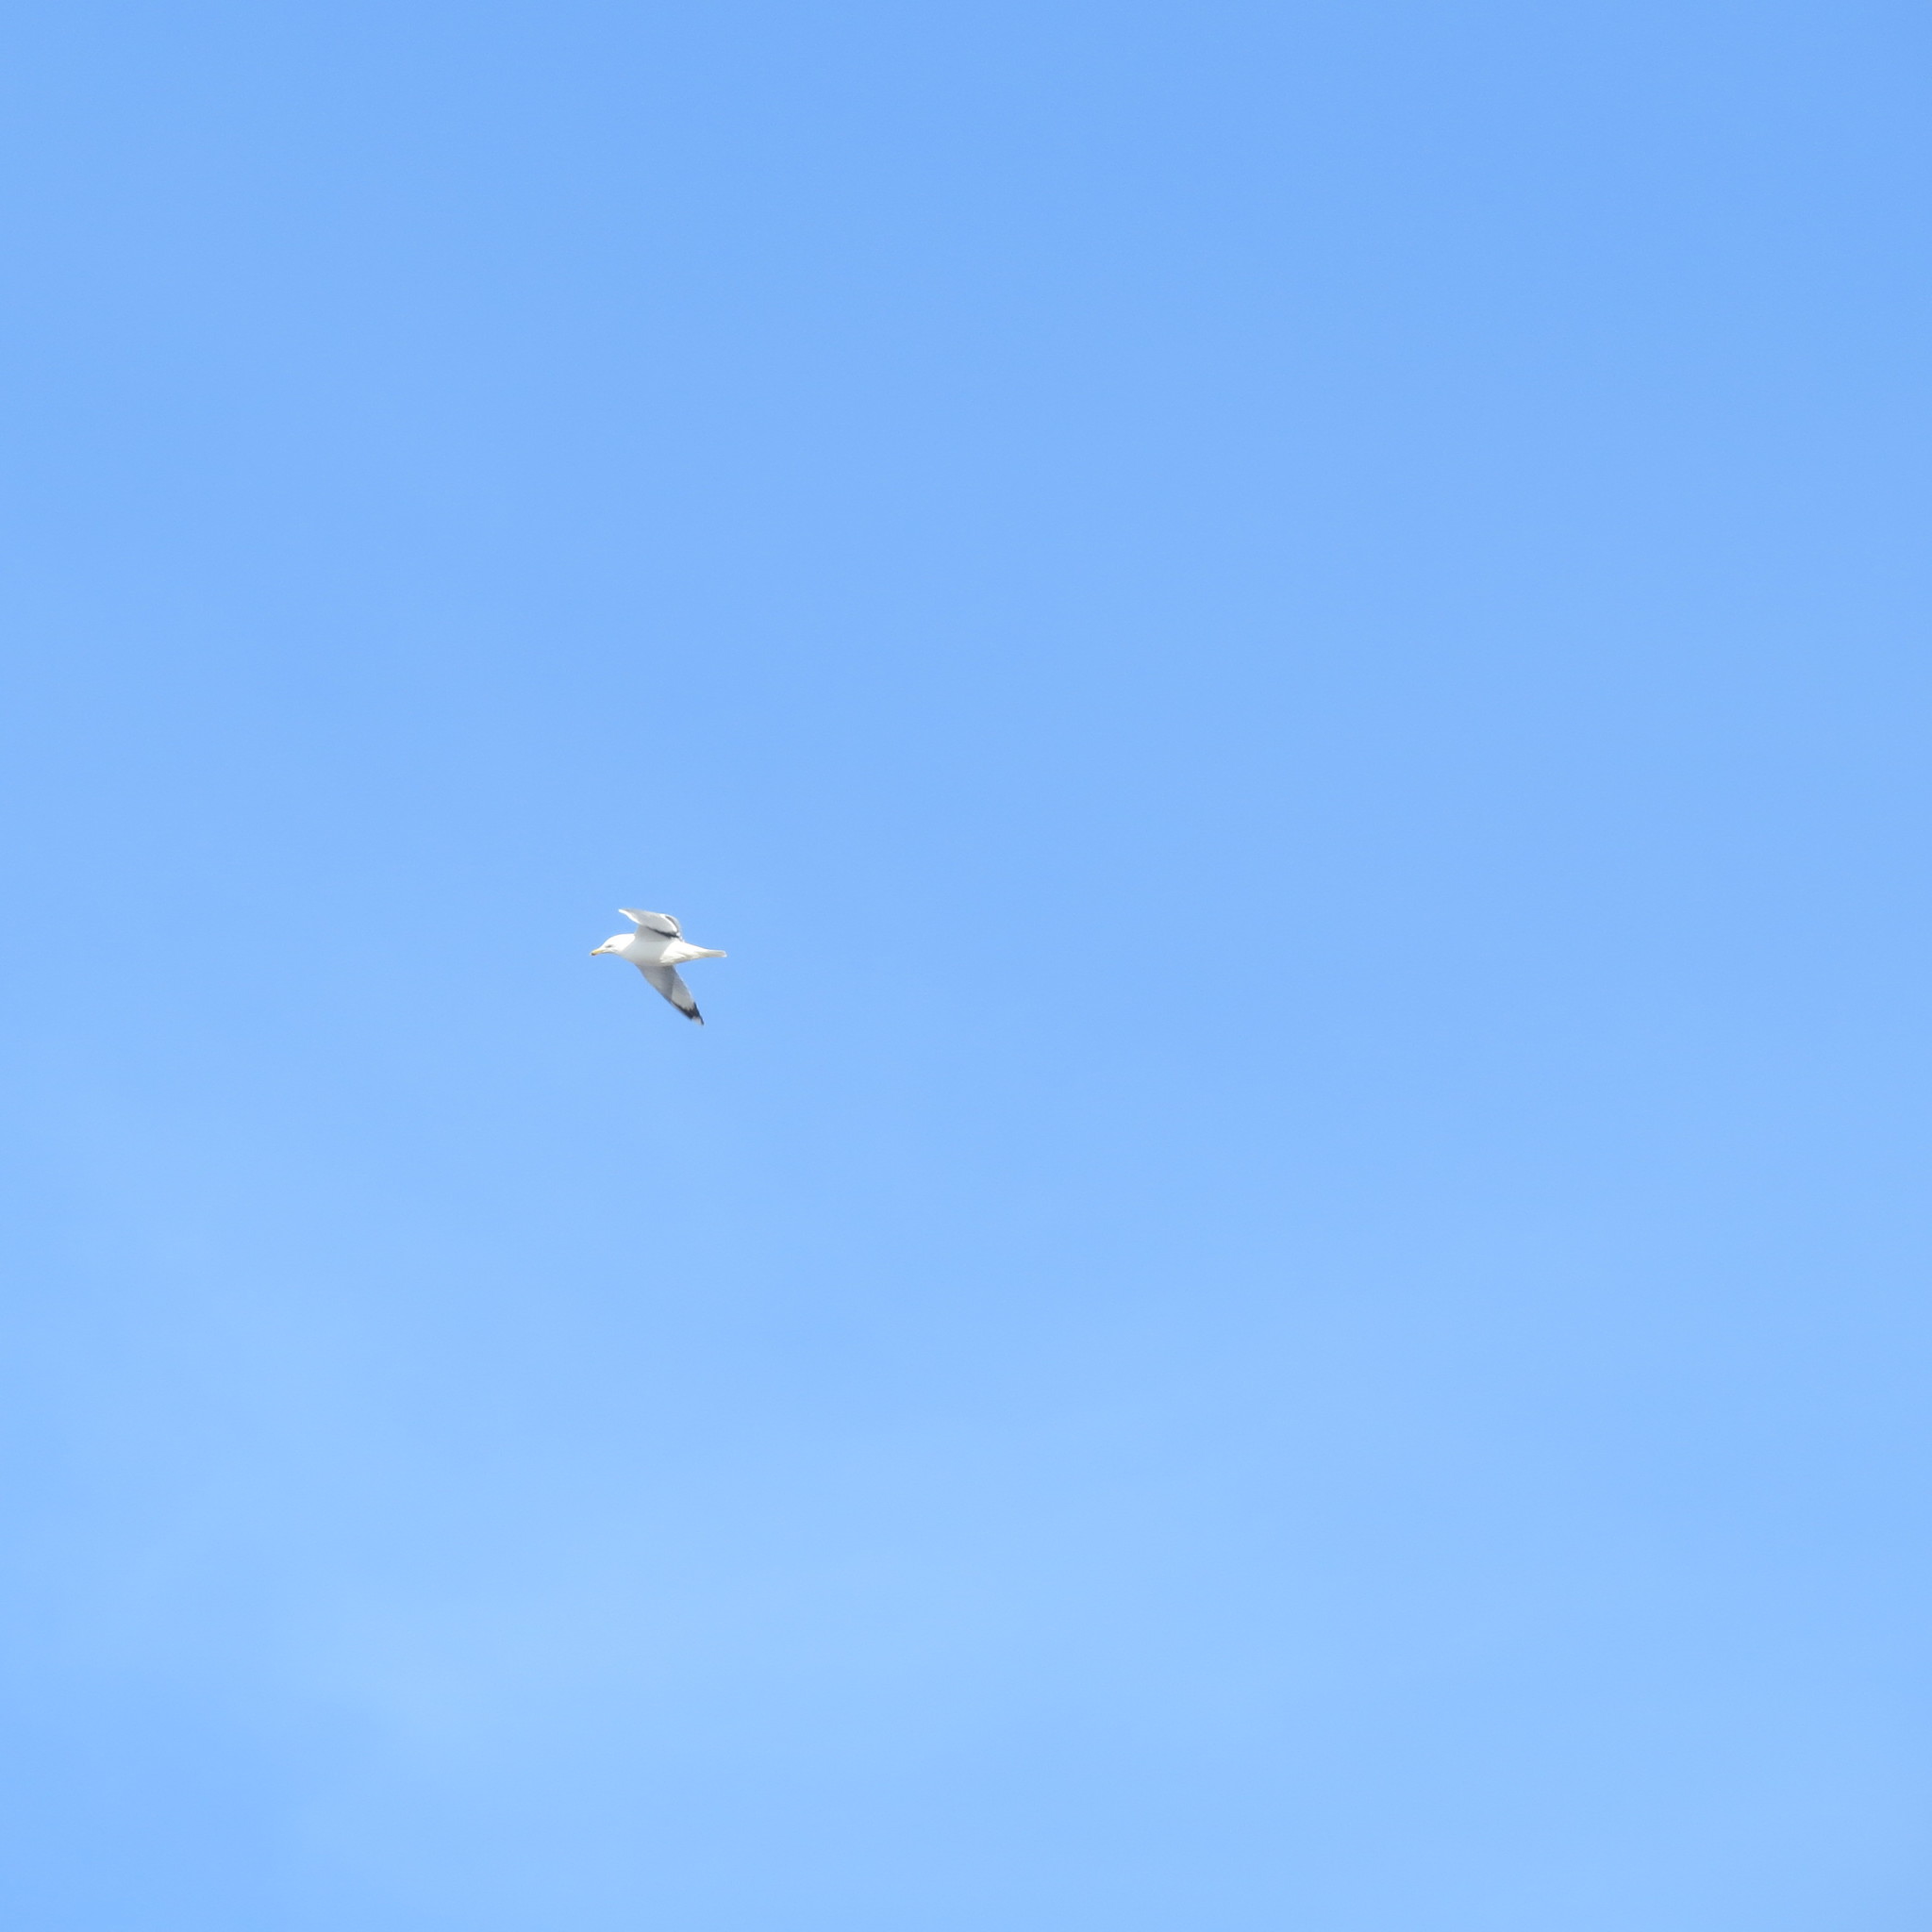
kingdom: Animalia
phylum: Chordata
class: Aves
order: Charadriiformes
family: Laridae
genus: Larus
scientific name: Larus argentatus
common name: Herring gull
